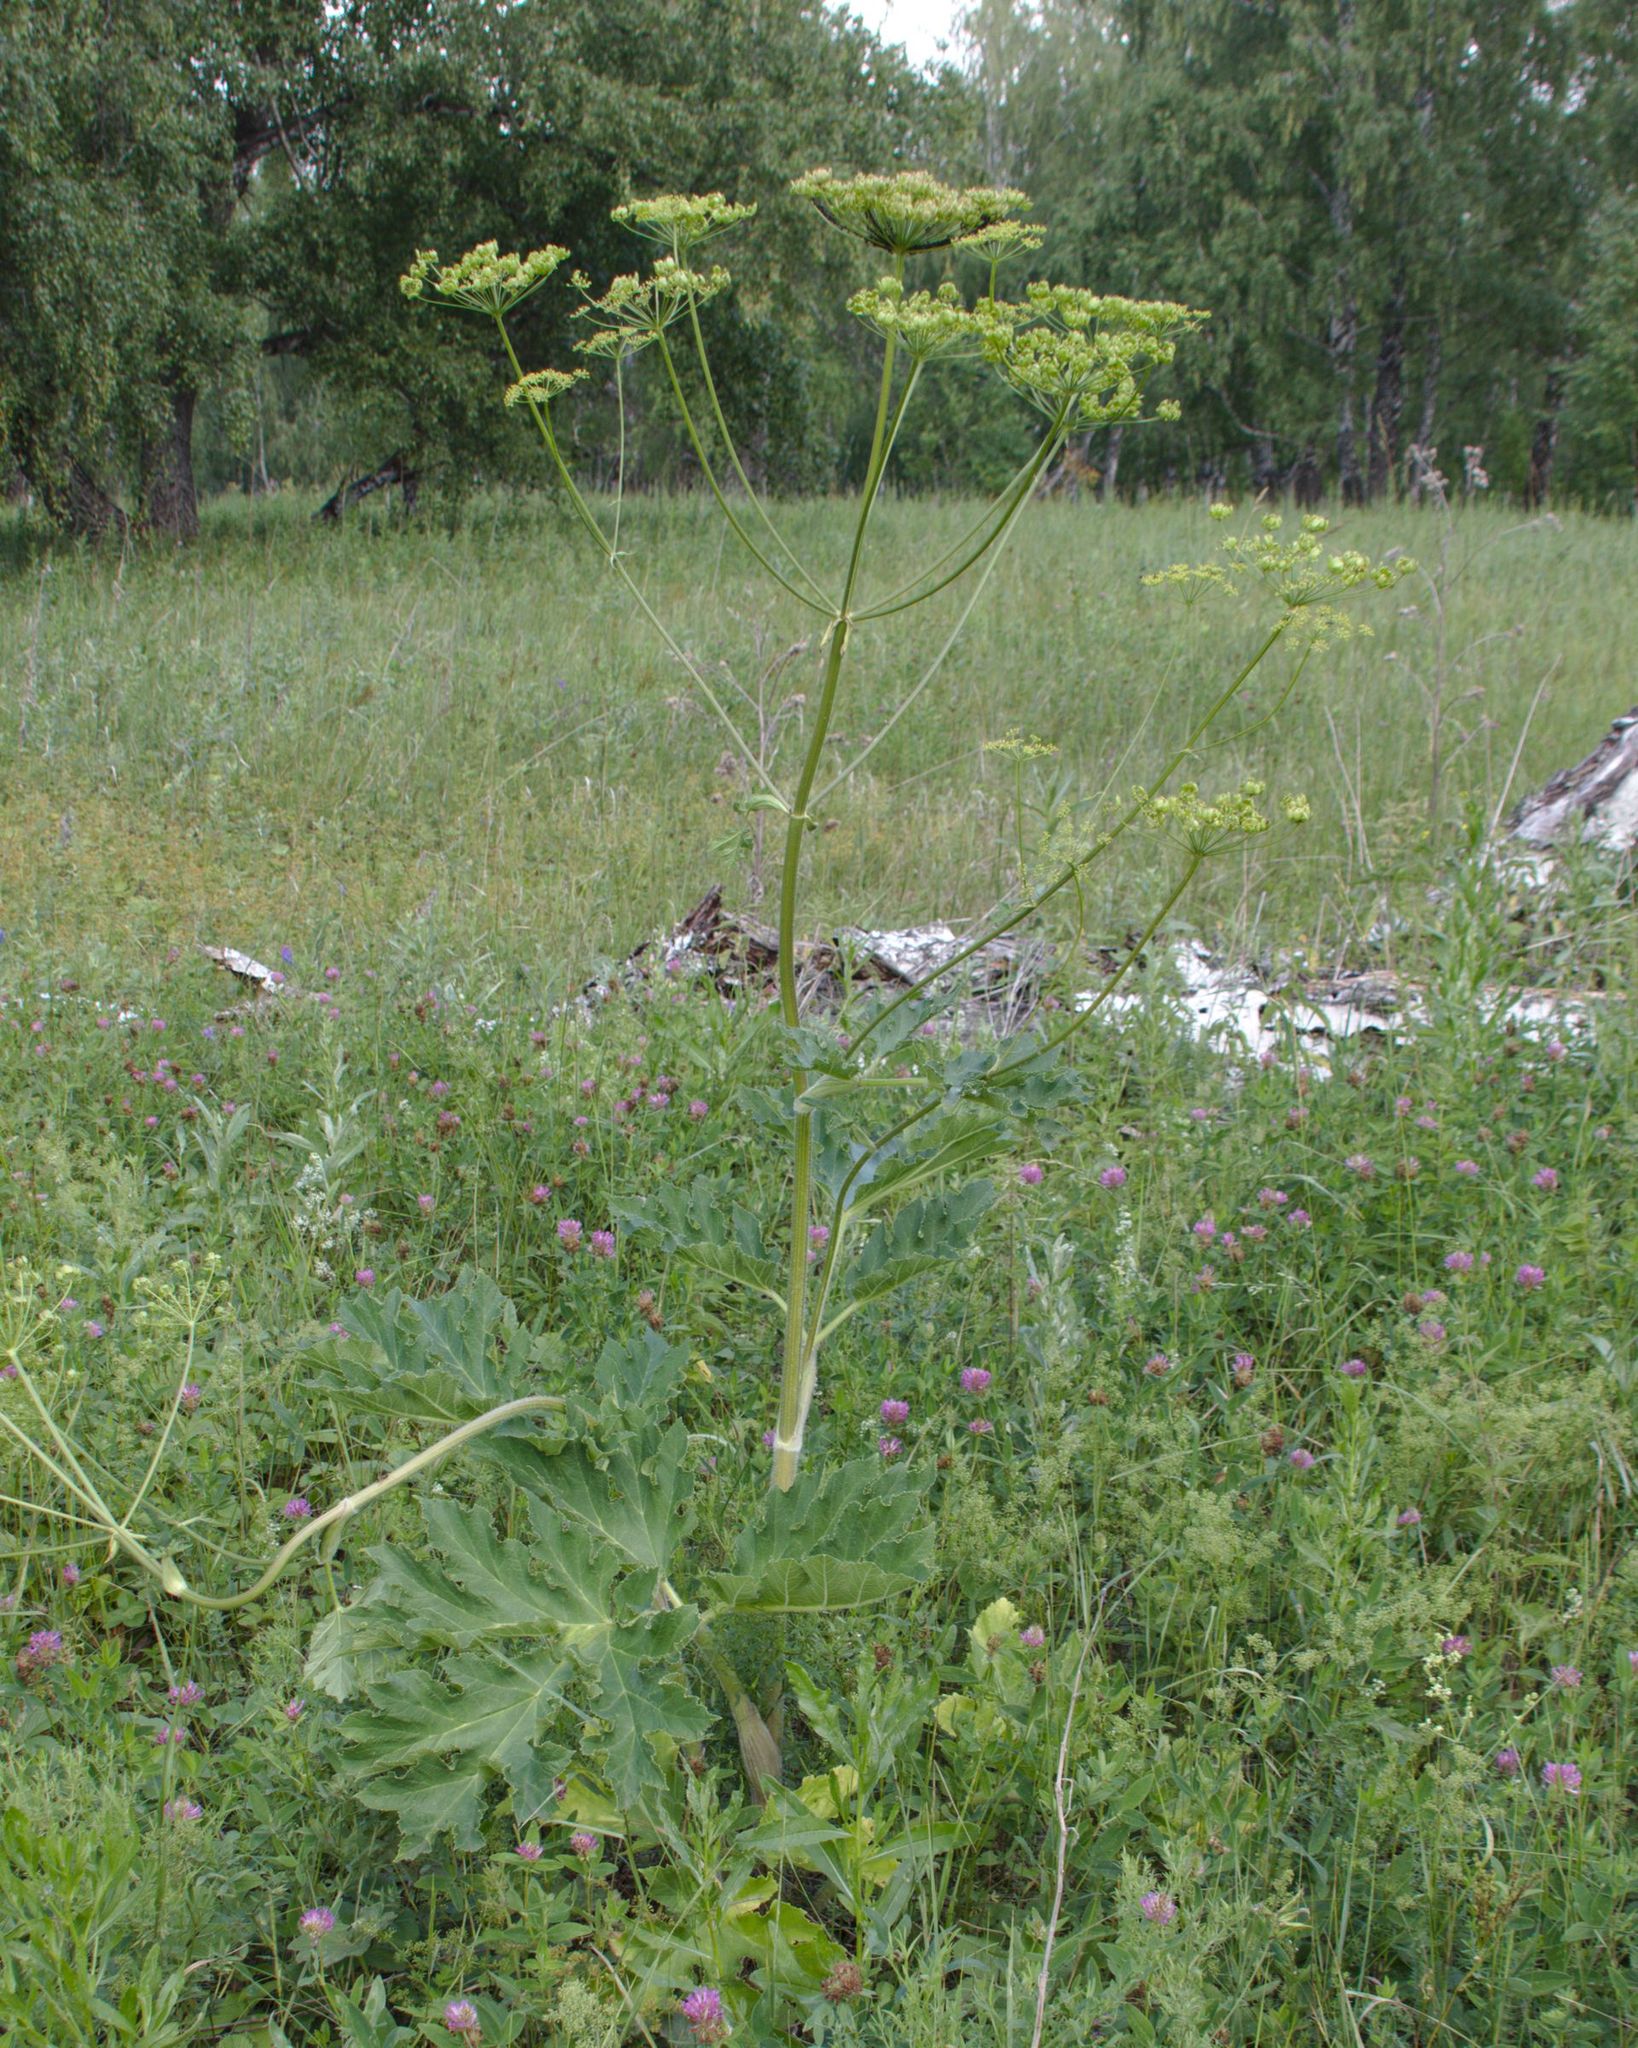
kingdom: Plantae
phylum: Tracheophyta
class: Magnoliopsida
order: Apiales
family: Apiaceae
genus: Heracleum
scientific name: Heracleum sphondylium
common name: Hogweed
